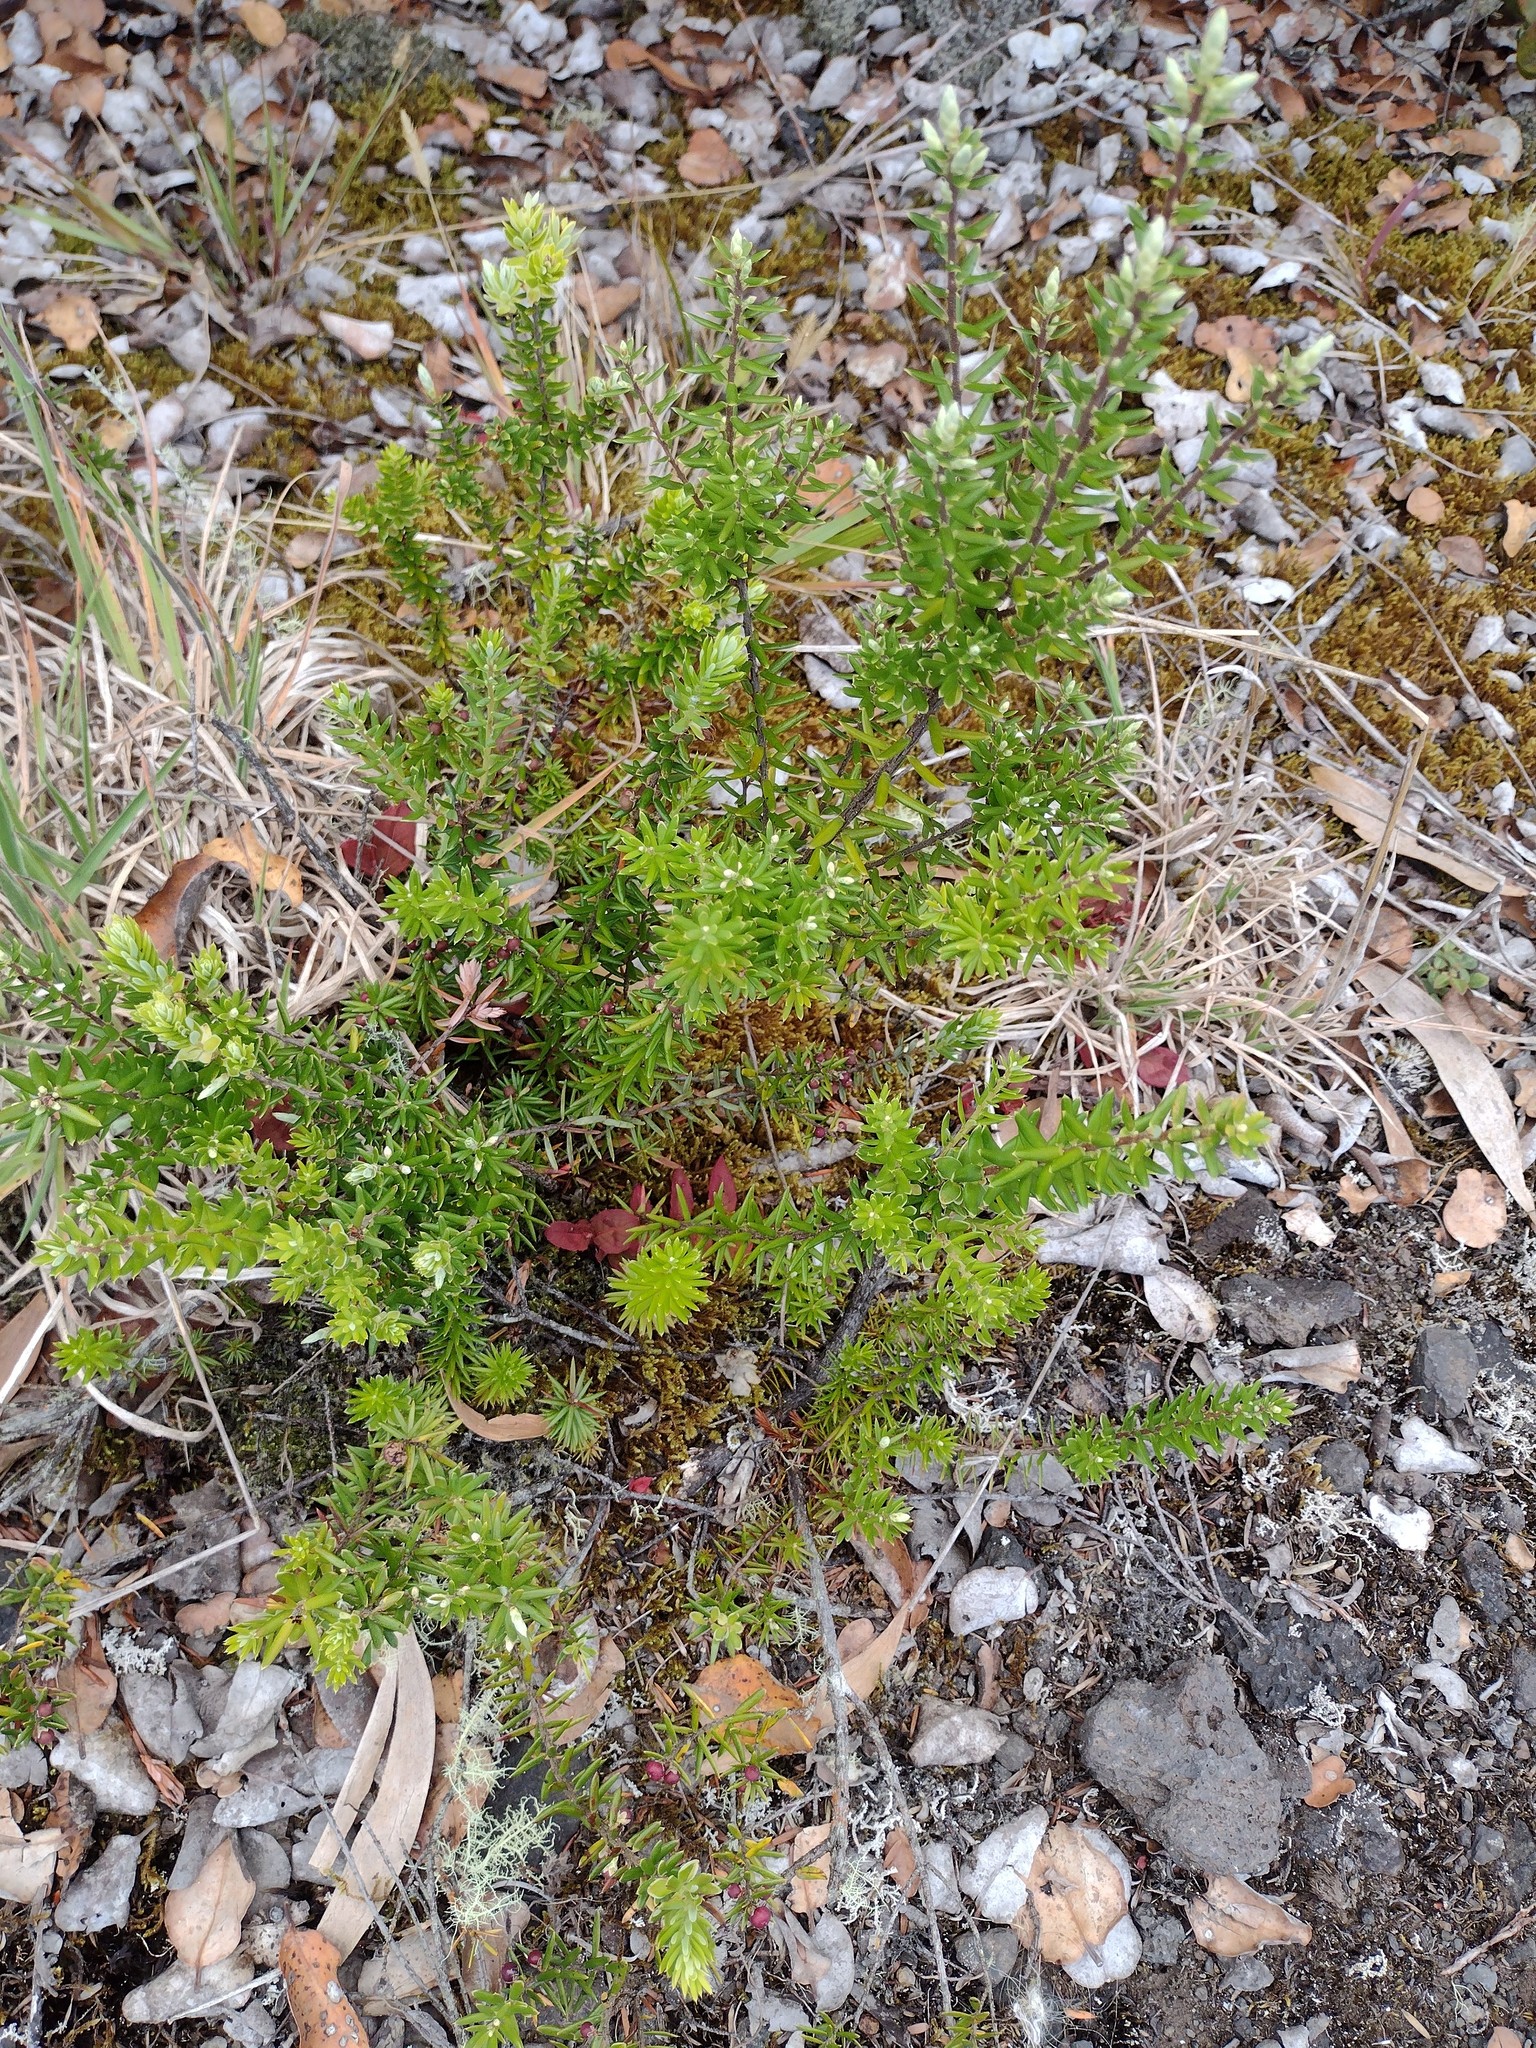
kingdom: Plantae
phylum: Tracheophyta
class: Magnoliopsida
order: Ericales
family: Ericaceae
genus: Leptecophylla
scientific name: Leptecophylla tameiameiae
